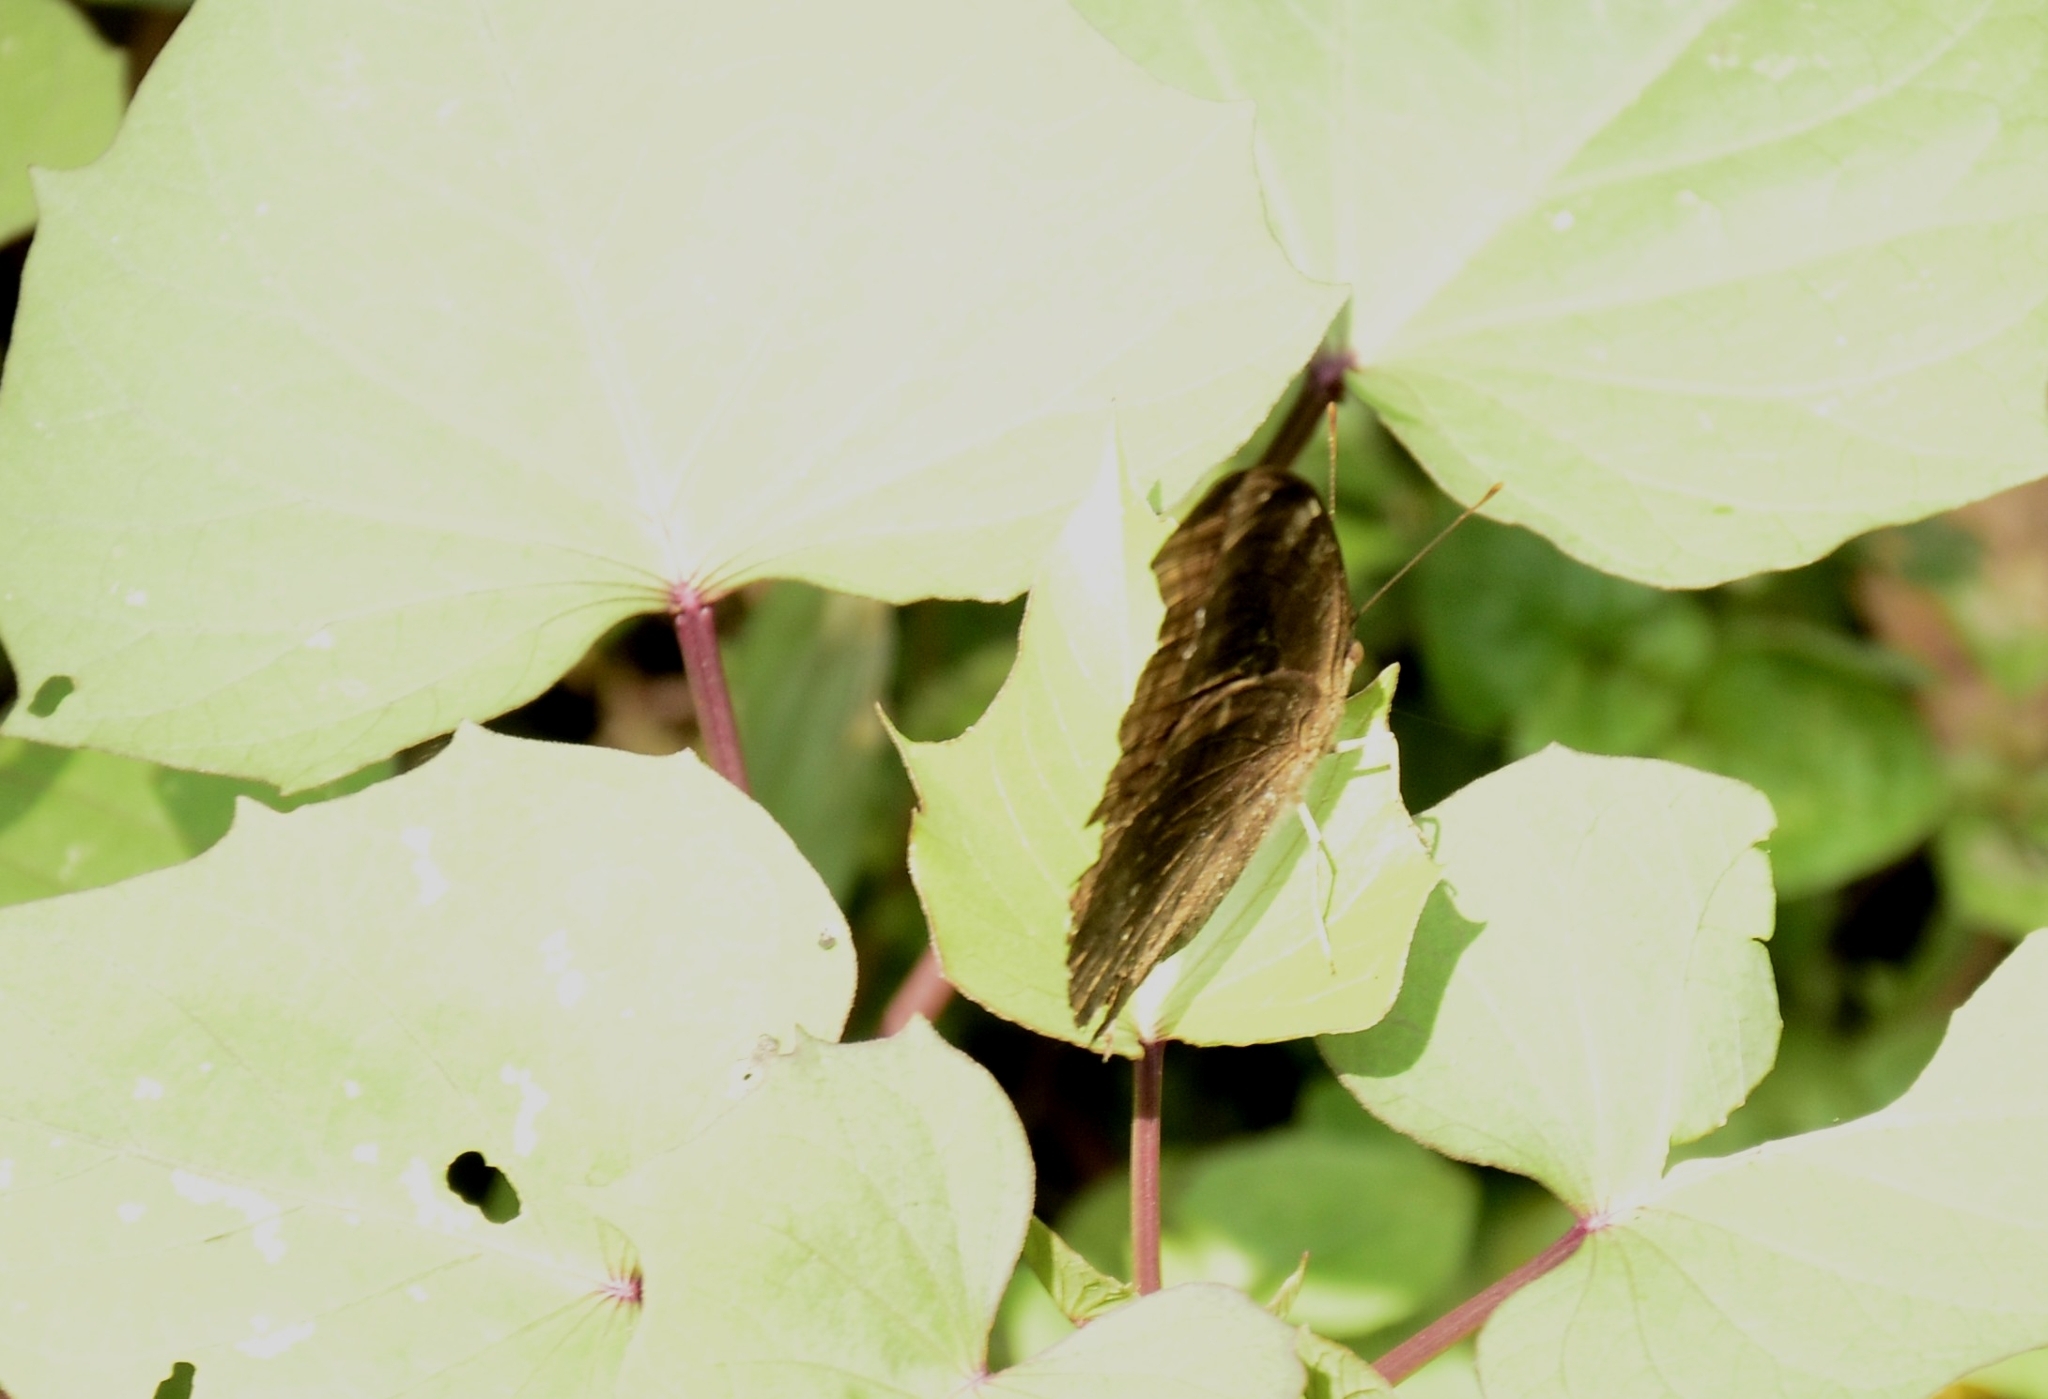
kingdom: Animalia
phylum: Arthropoda
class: Insecta
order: Lepidoptera
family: Nymphalidae
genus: Junonia
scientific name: Junonia iphita
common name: Chocolate pansy
